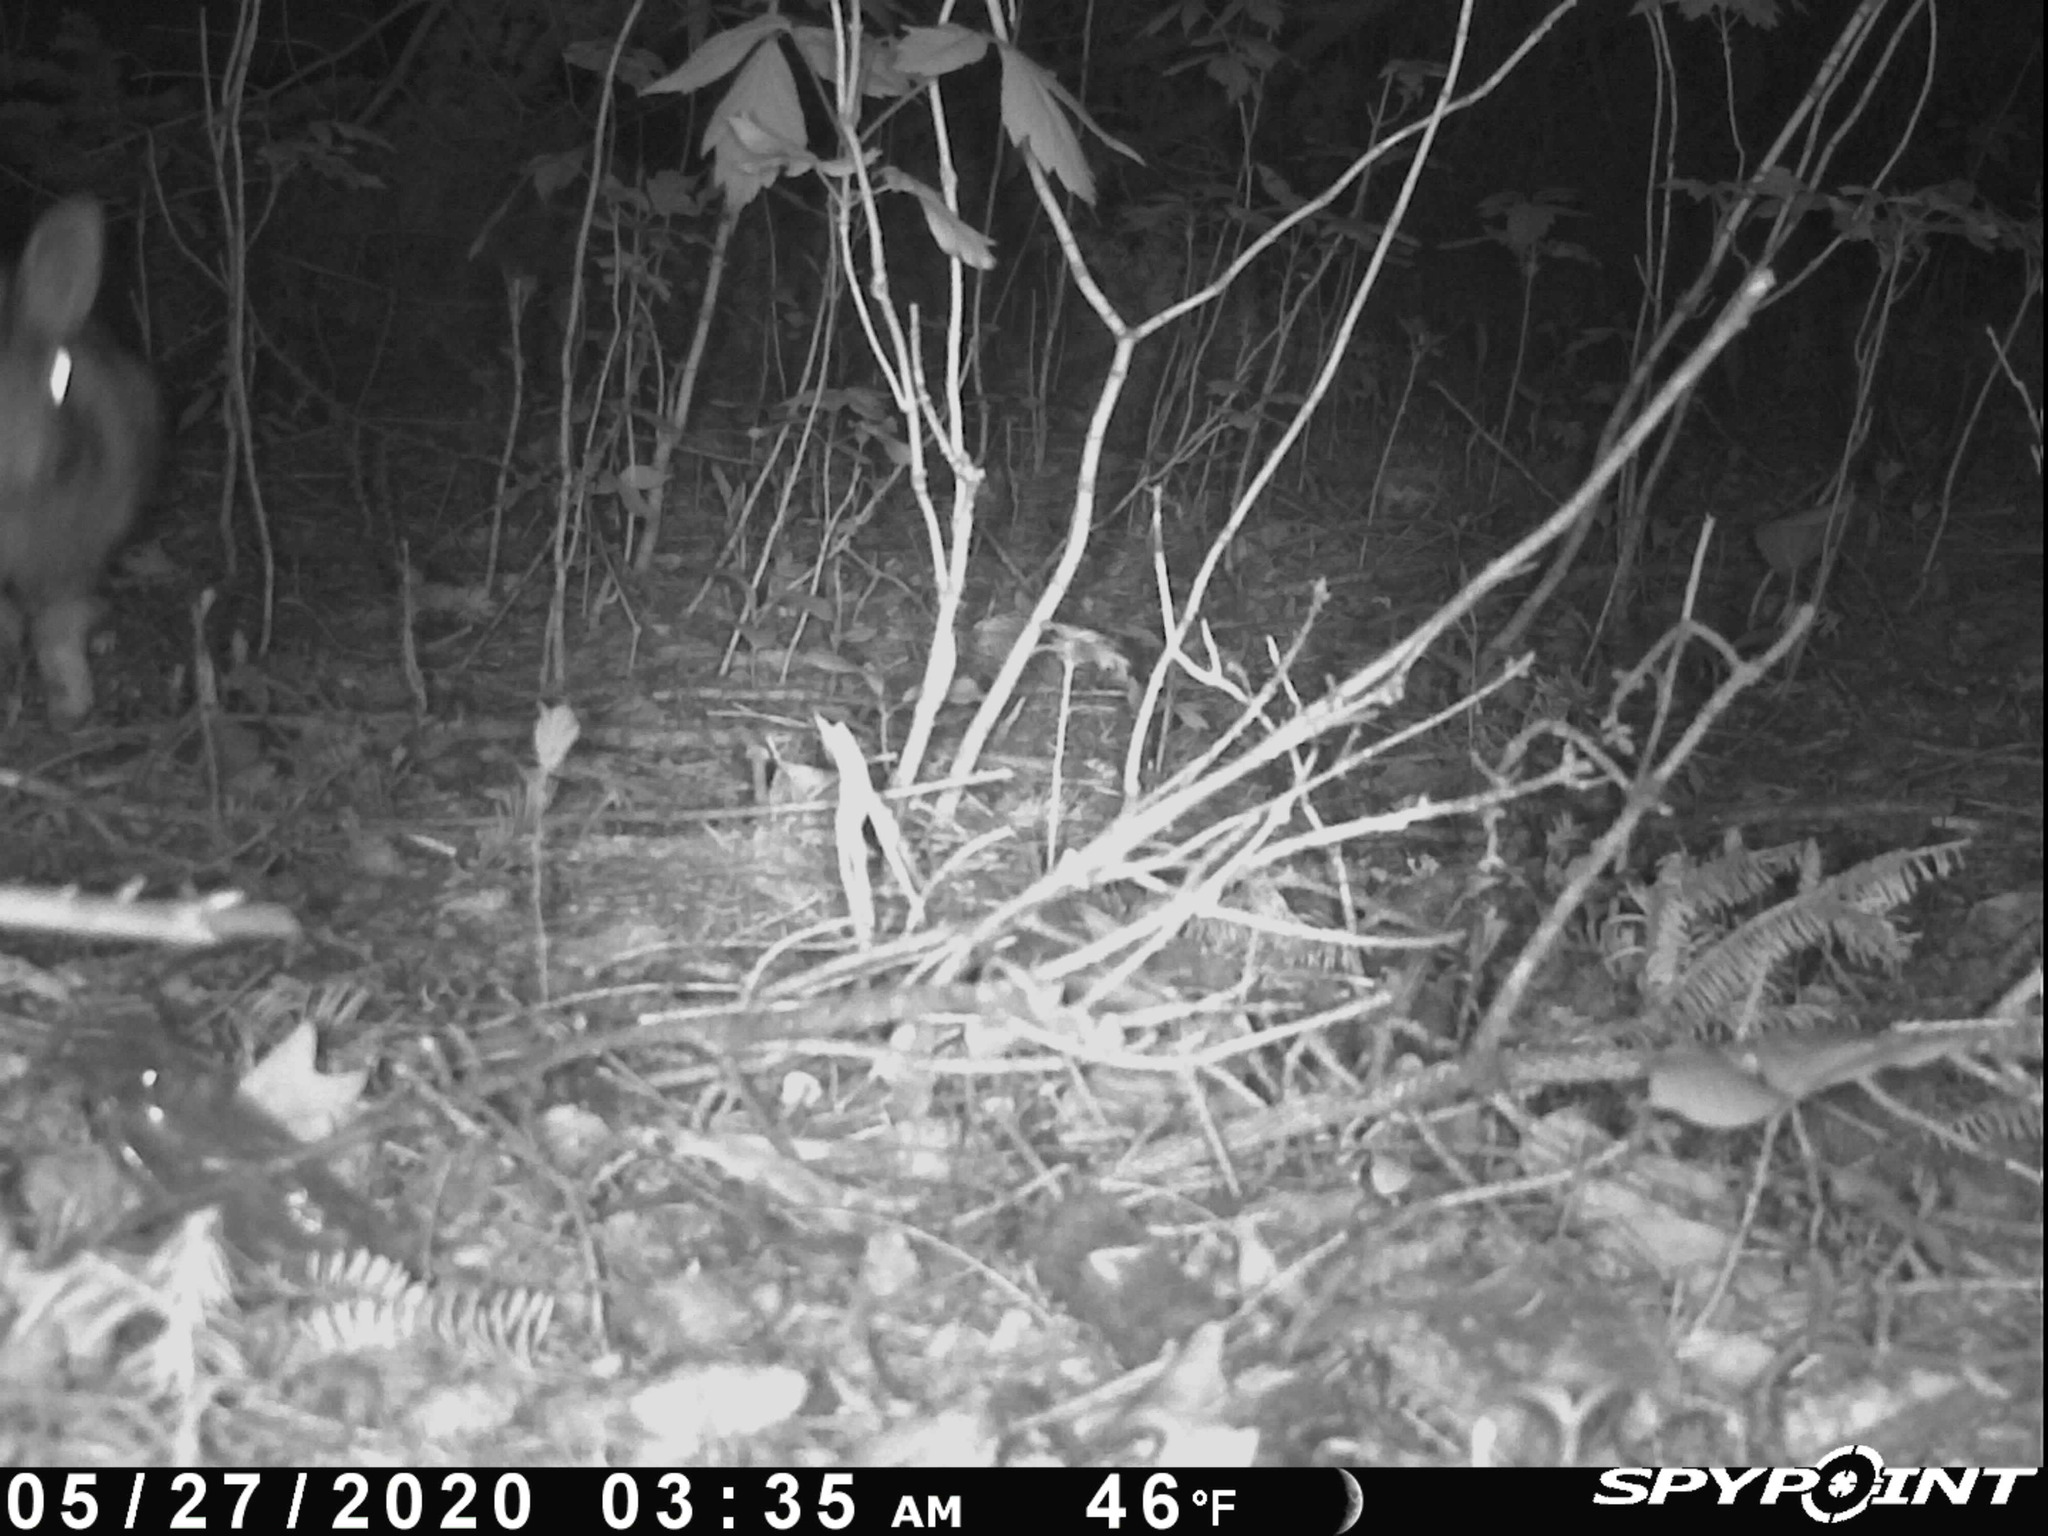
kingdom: Animalia
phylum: Chordata
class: Mammalia
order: Lagomorpha
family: Leporidae
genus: Sylvilagus
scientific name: Sylvilagus floridanus
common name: Eastern cottontail
